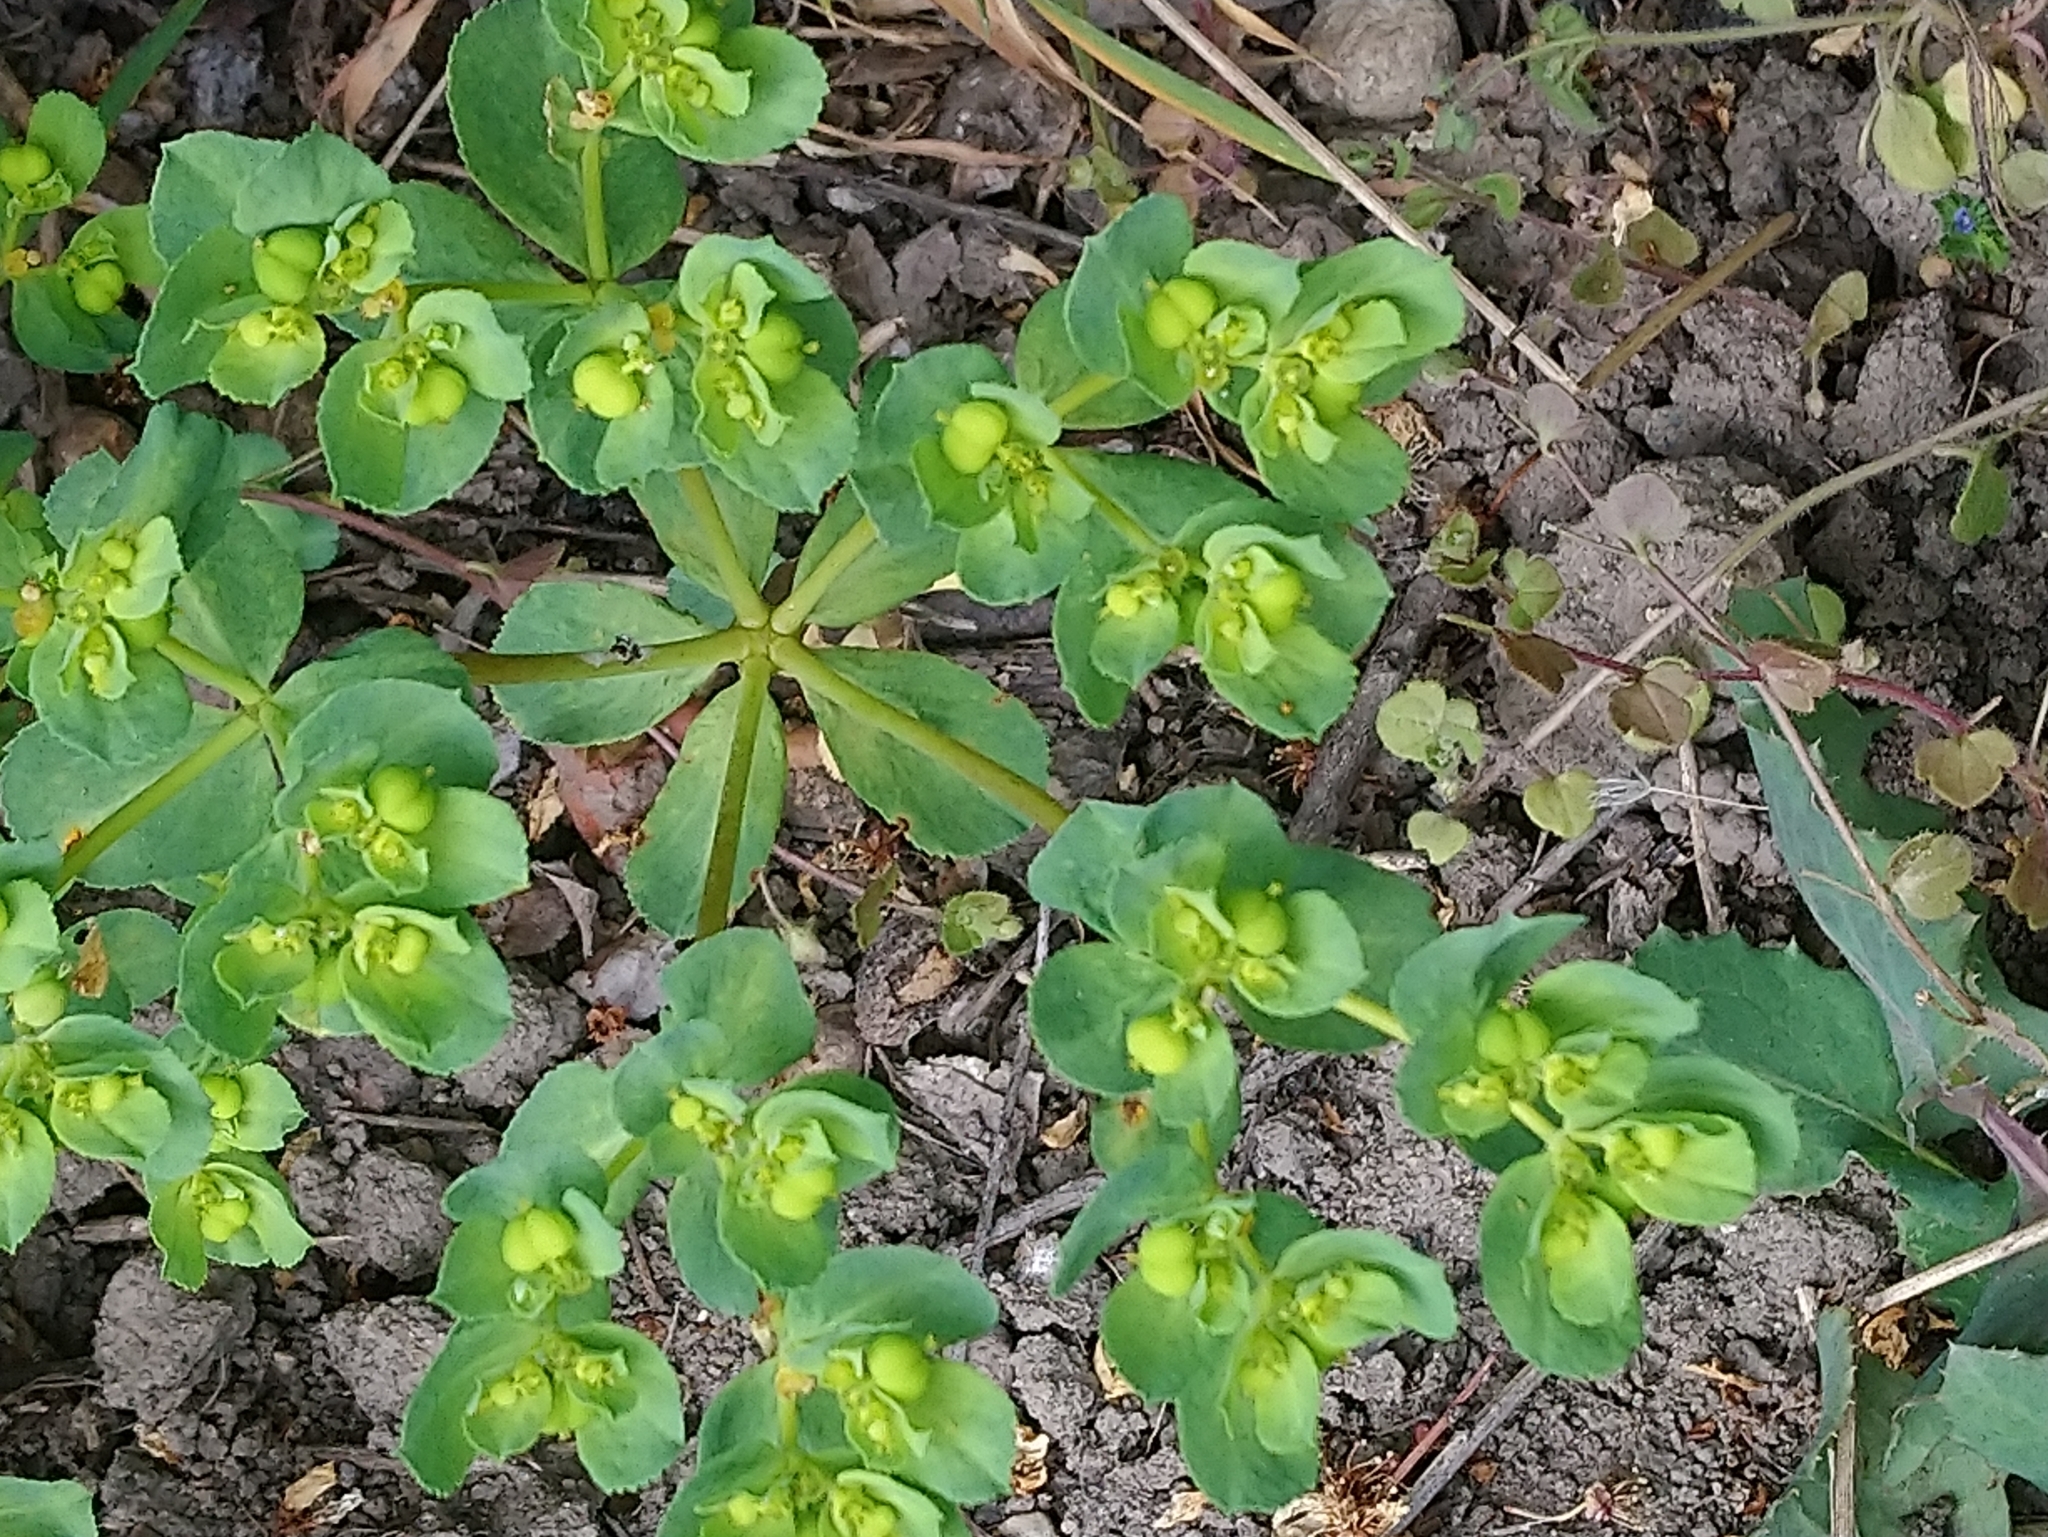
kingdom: Plantae
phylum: Tracheophyta
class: Magnoliopsida
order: Malpighiales
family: Euphorbiaceae
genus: Euphorbia
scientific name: Euphorbia helioscopia
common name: Sun spurge
